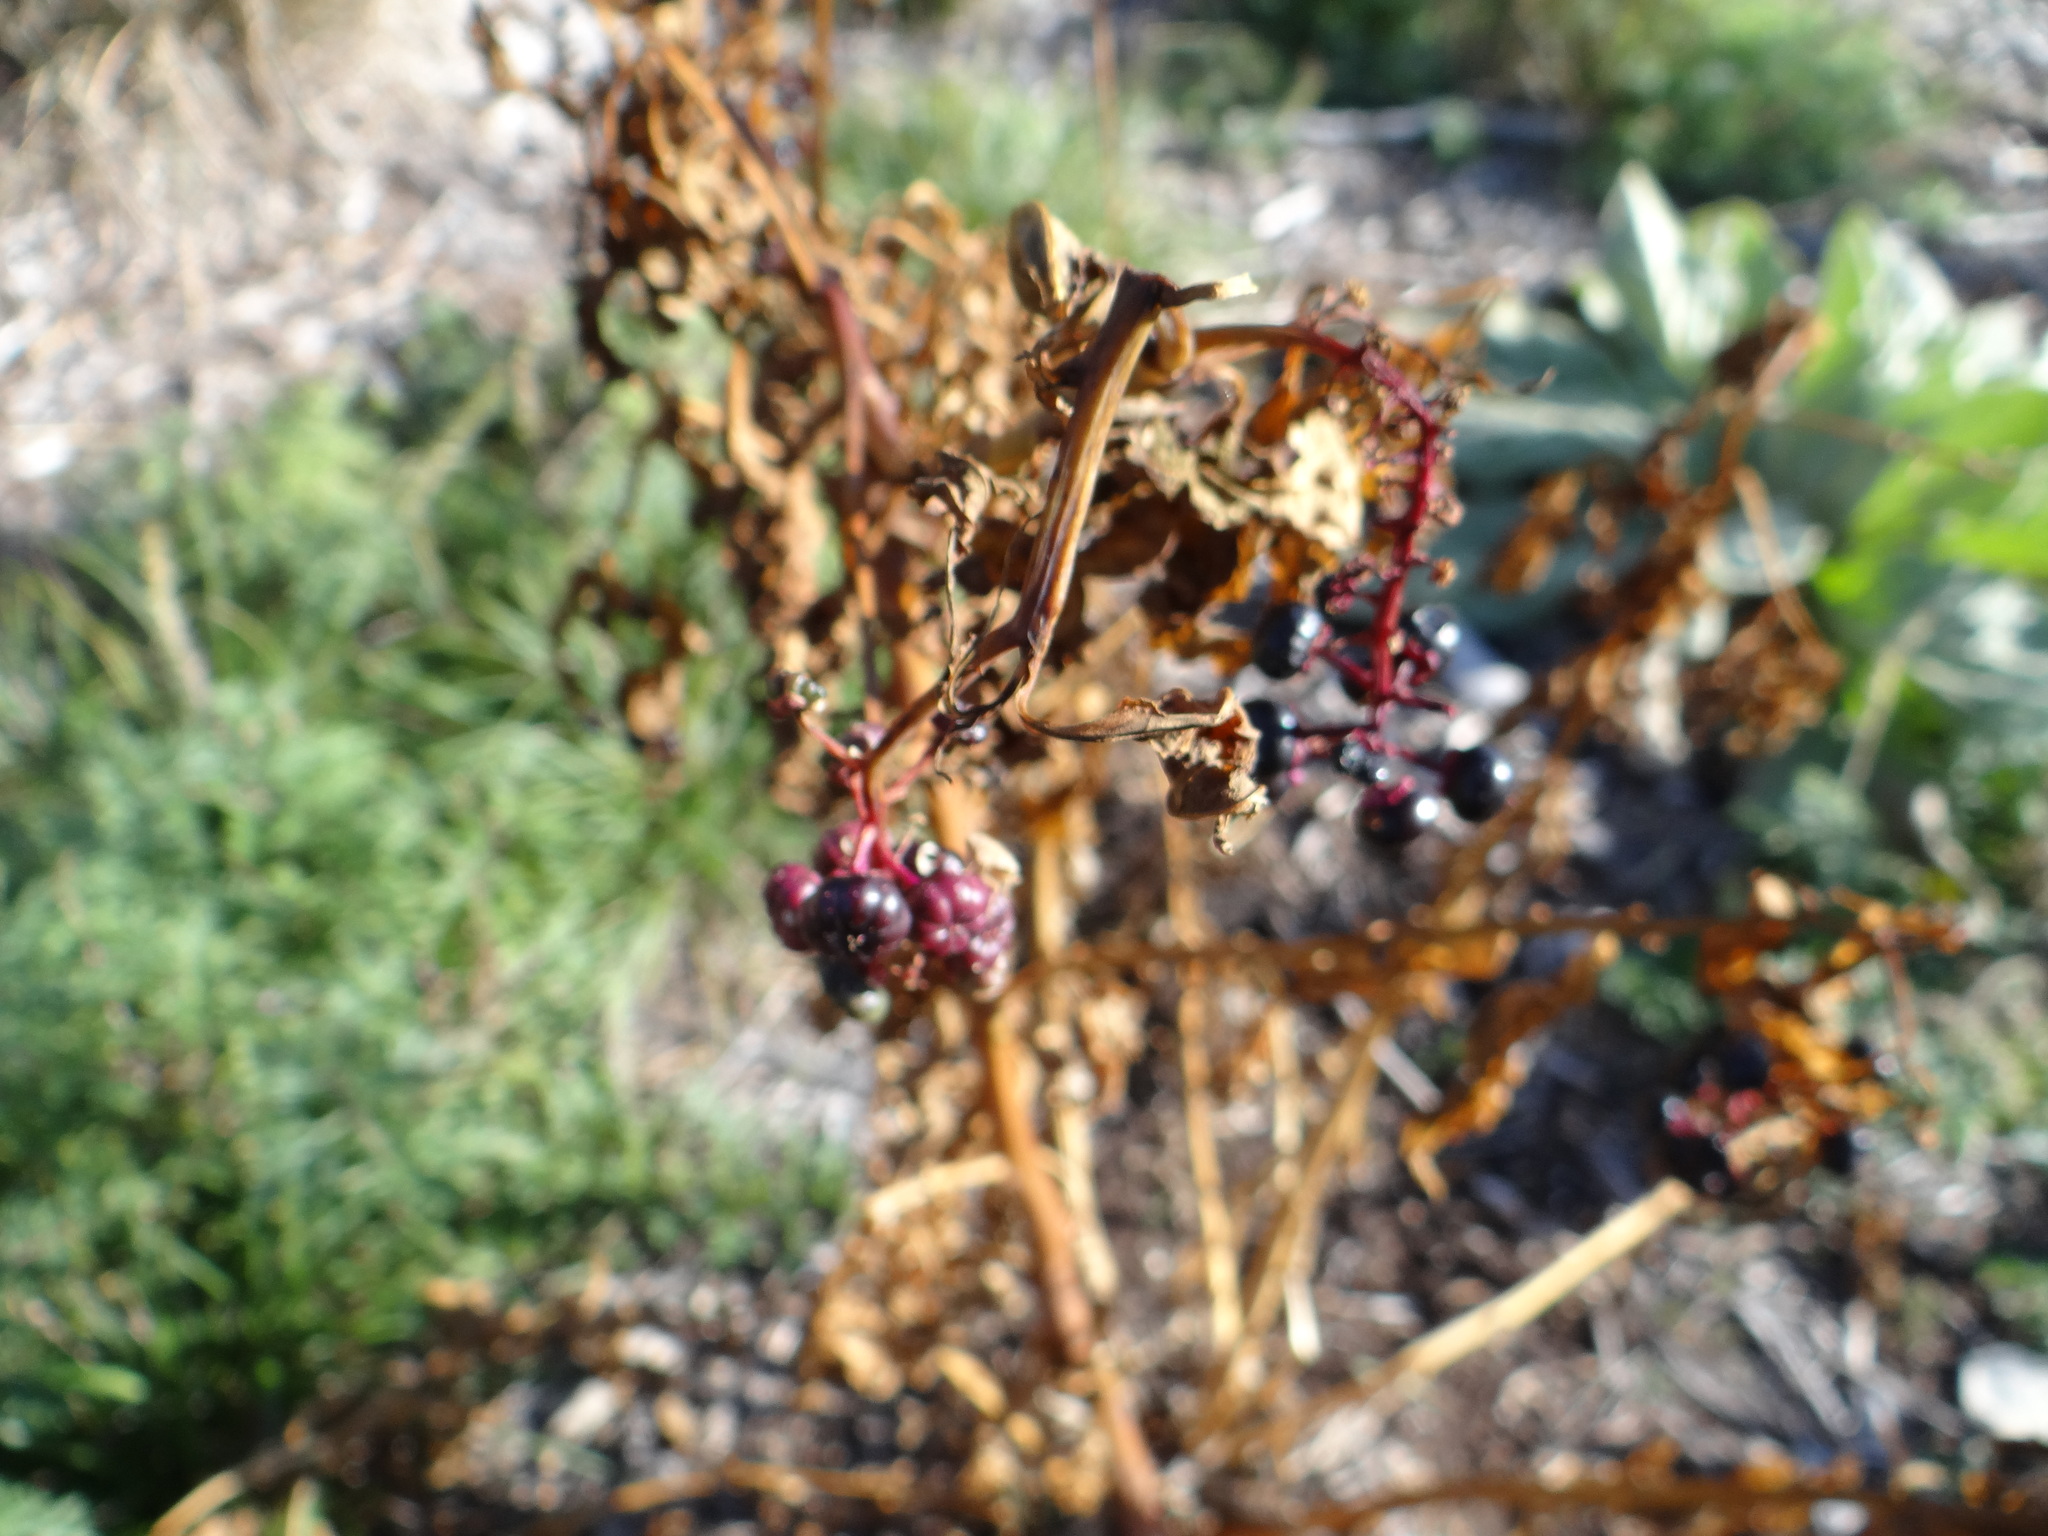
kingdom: Plantae
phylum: Tracheophyta
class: Magnoliopsida
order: Caryophyllales
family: Phytolaccaceae
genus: Phytolacca
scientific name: Phytolacca americana
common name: American pokeweed
